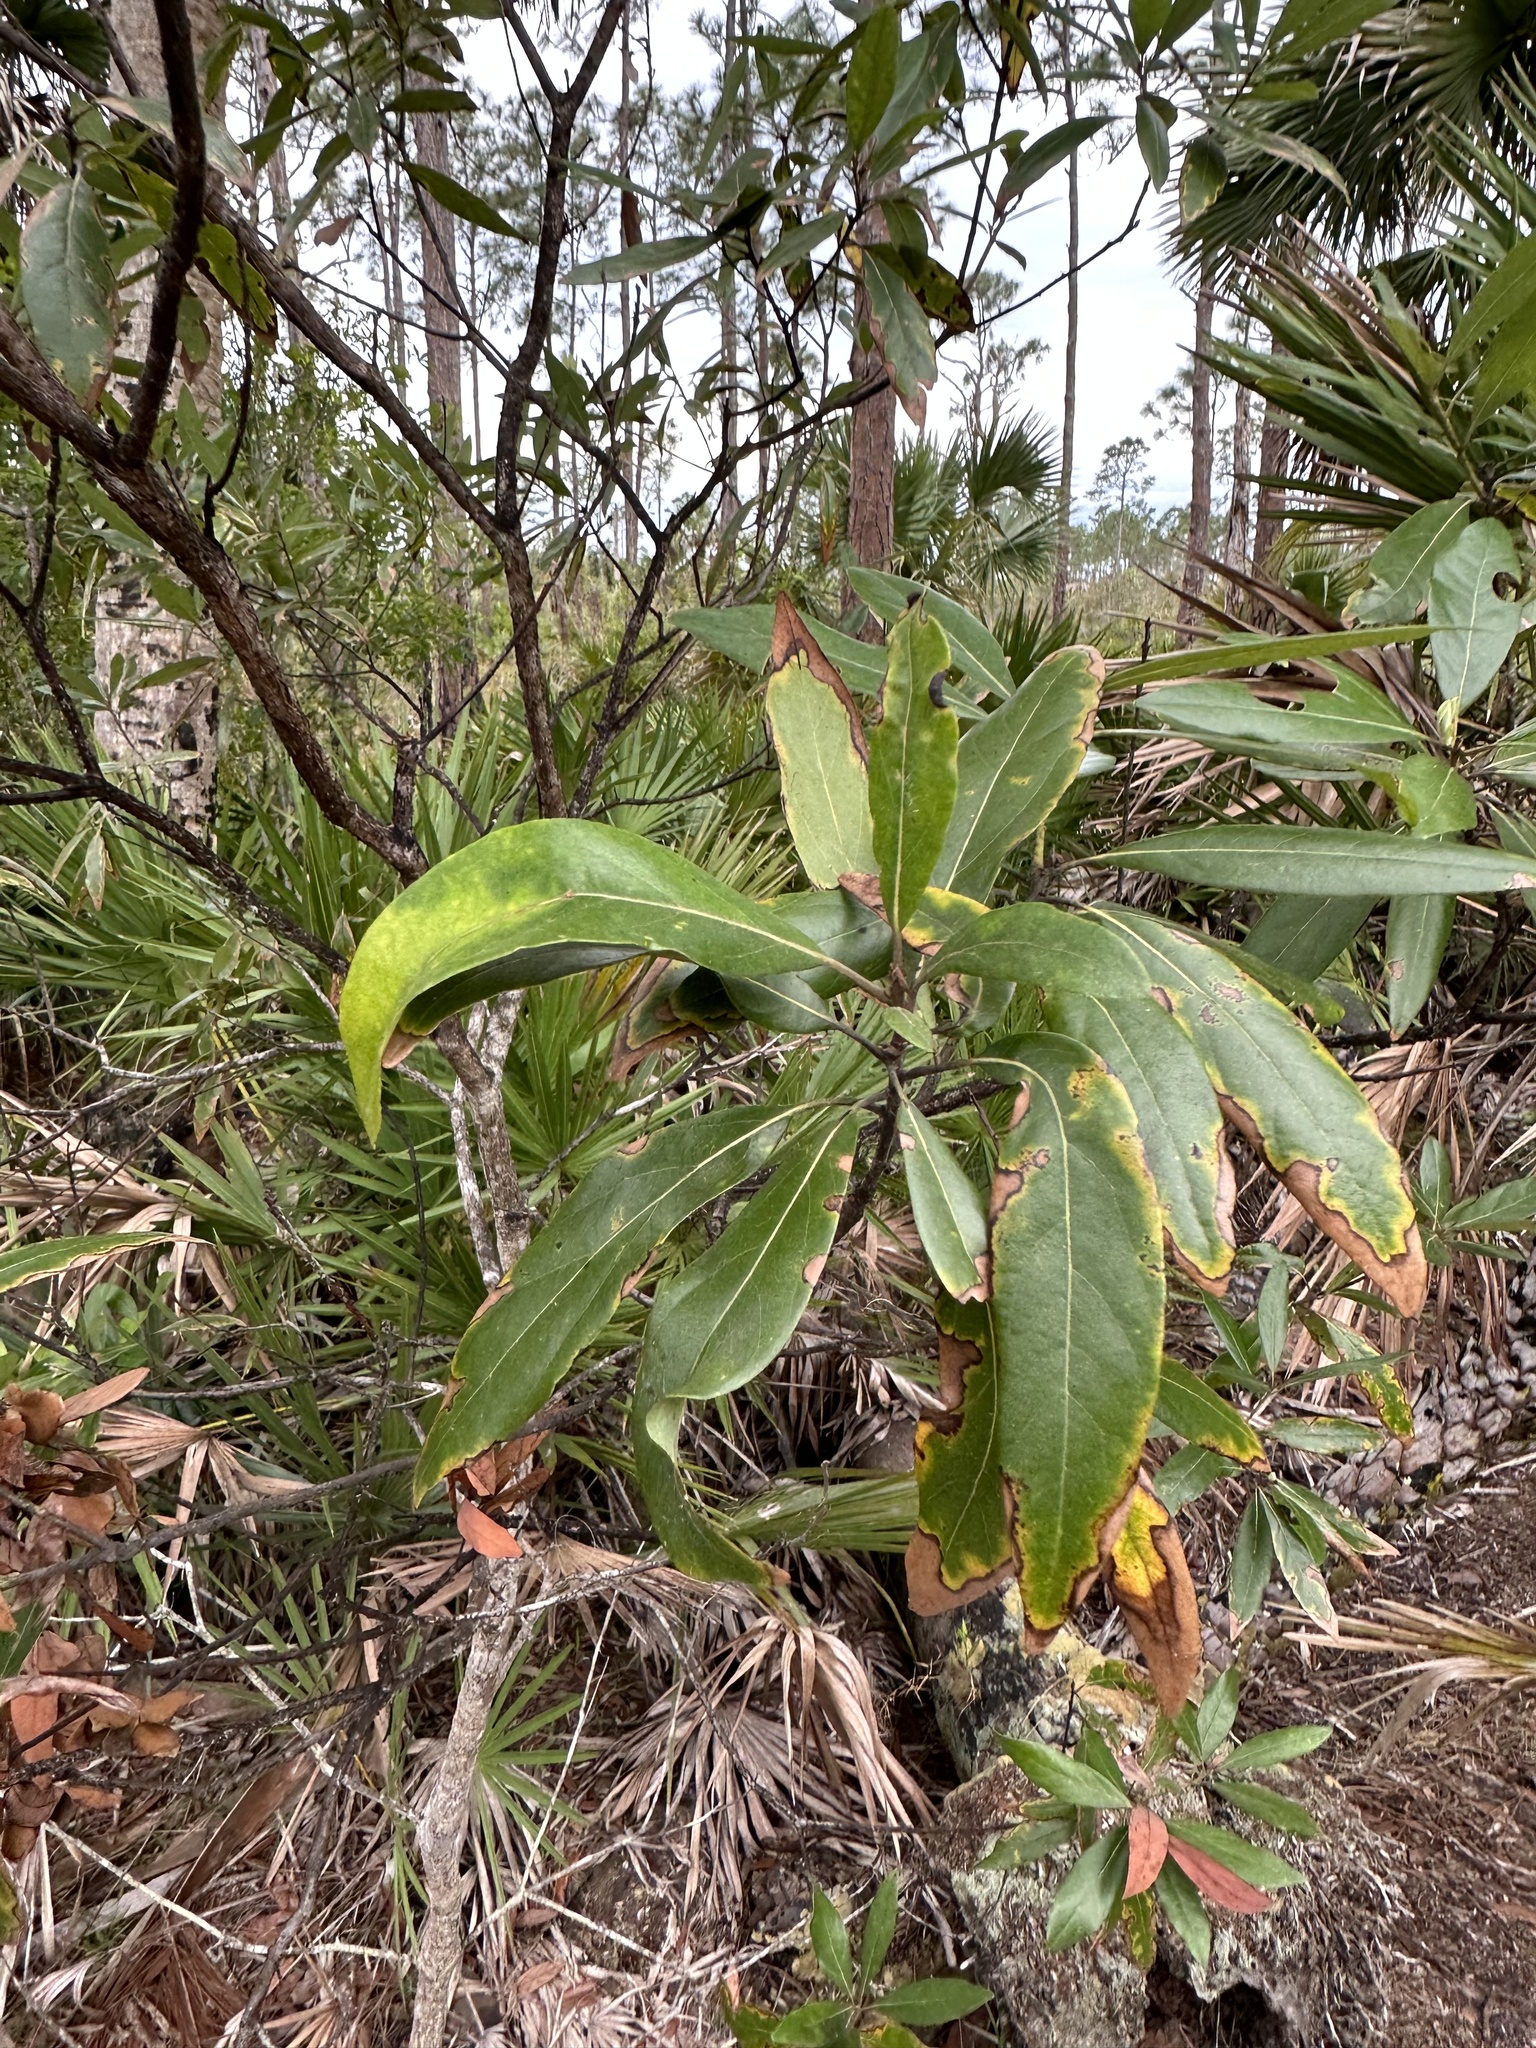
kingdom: Plantae
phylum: Tracheophyta
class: Magnoliopsida
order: Laurales
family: Lauraceae
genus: Persea
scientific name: Persea palustris
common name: Swampbay
